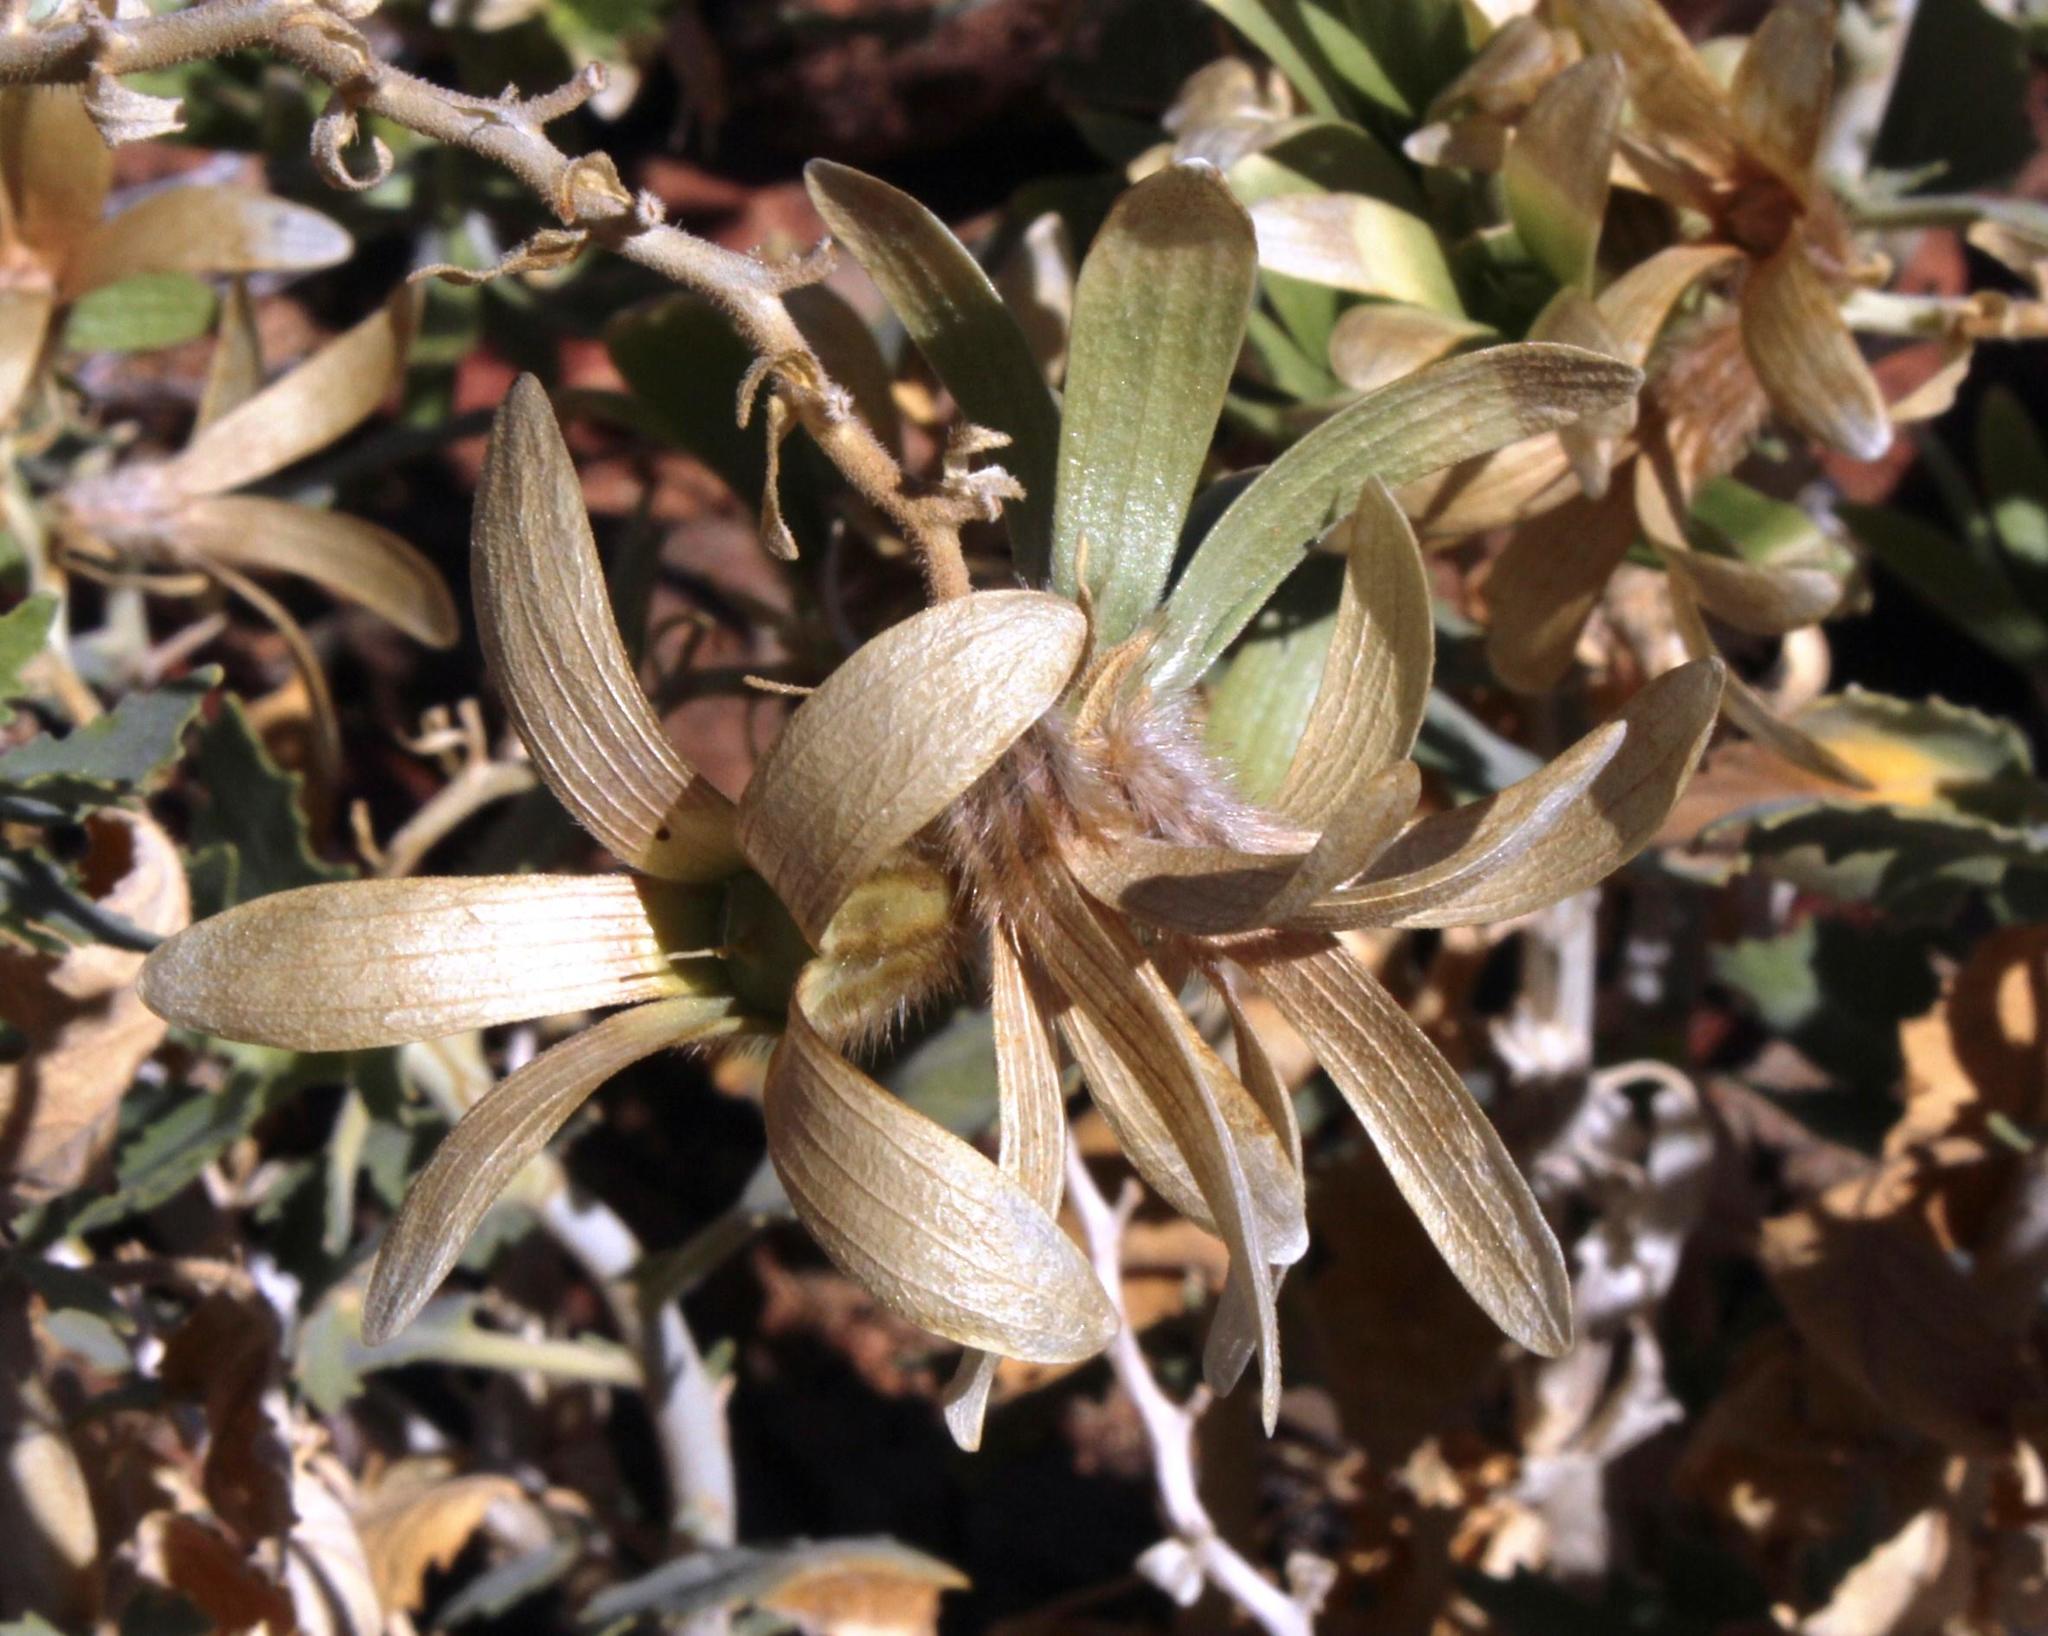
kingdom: Plantae
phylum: Tracheophyta
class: Magnoliopsida
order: Cornales
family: Loasaceae
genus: Kissenia
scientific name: Kissenia capensis
